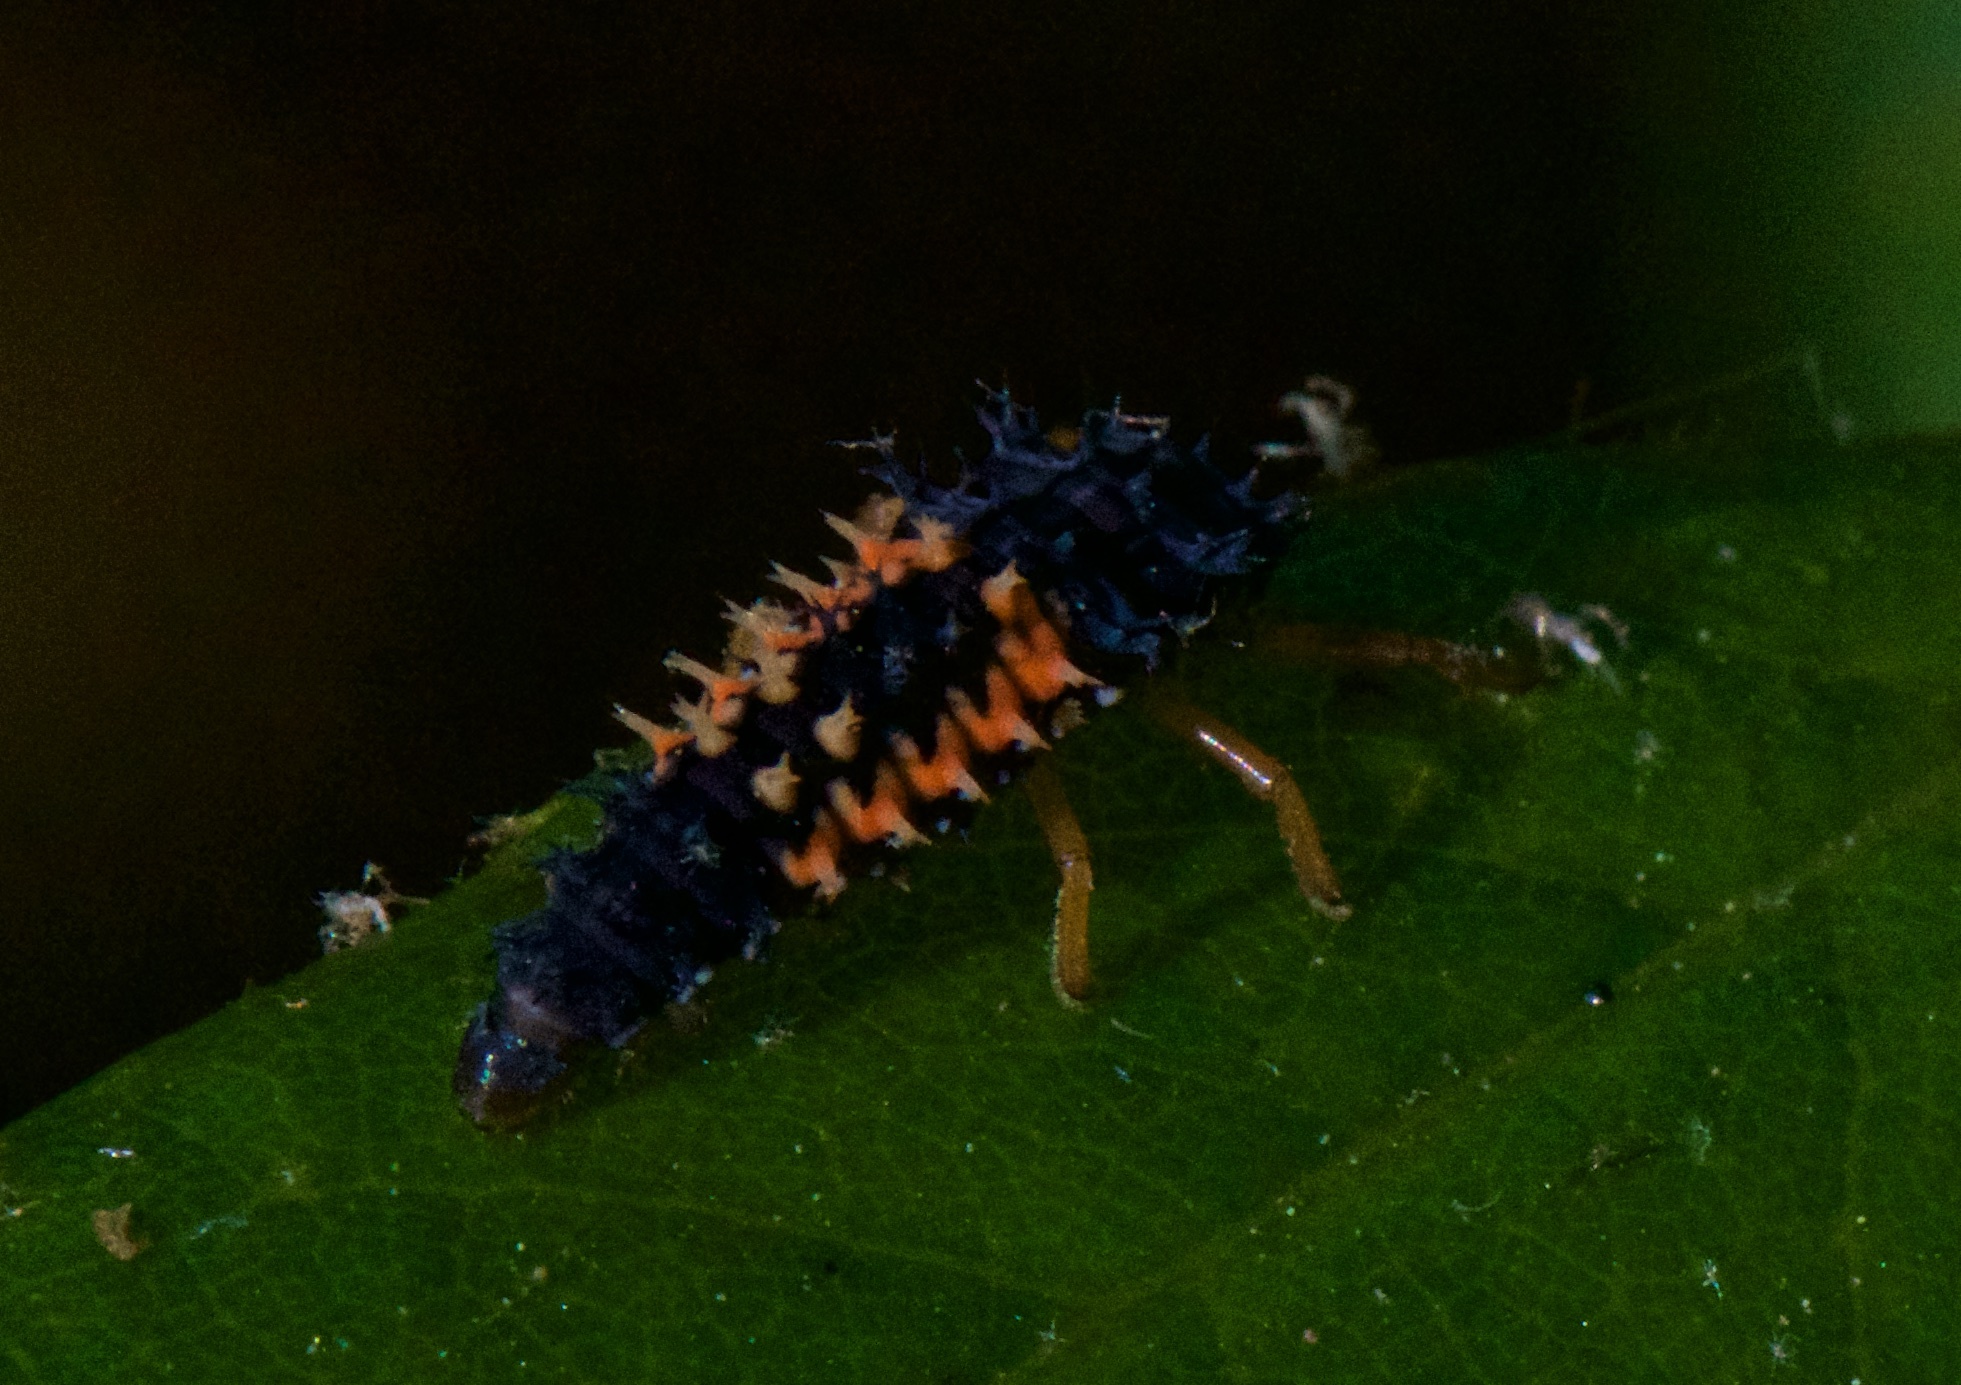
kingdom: Animalia
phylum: Arthropoda
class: Insecta
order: Coleoptera
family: Coccinellidae
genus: Harmonia
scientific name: Harmonia axyridis
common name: Harlequin ladybird
